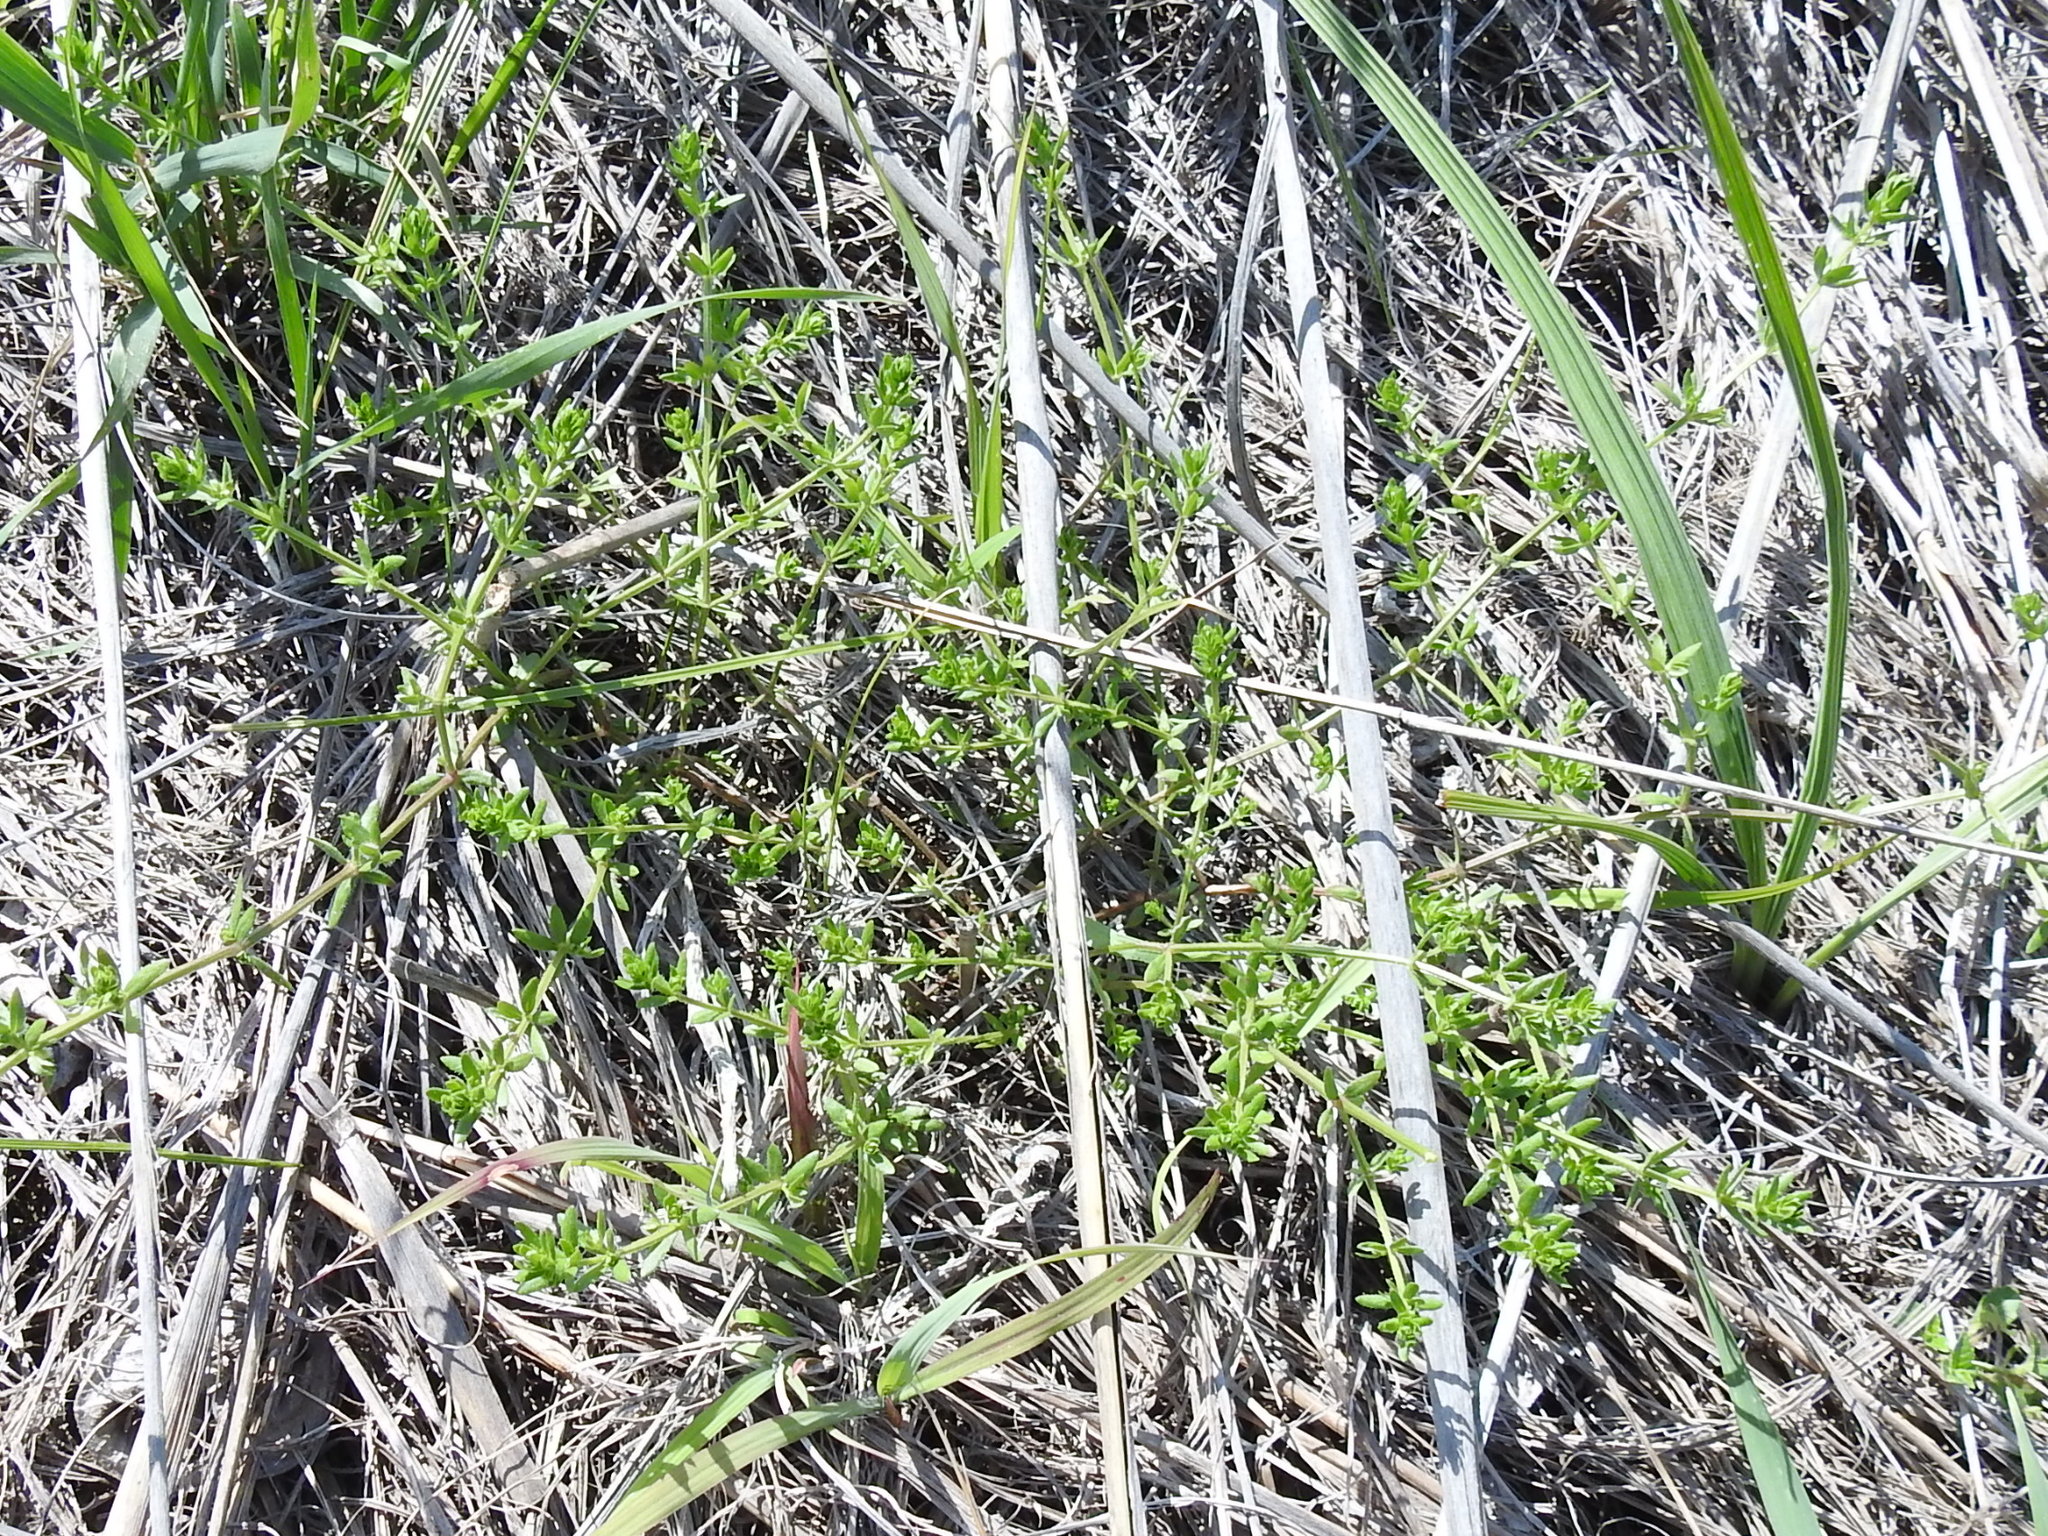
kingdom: Plantae
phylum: Tracheophyta
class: Magnoliopsida
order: Gentianales
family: Rubiaceae
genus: Galium
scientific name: Galium virgatum
